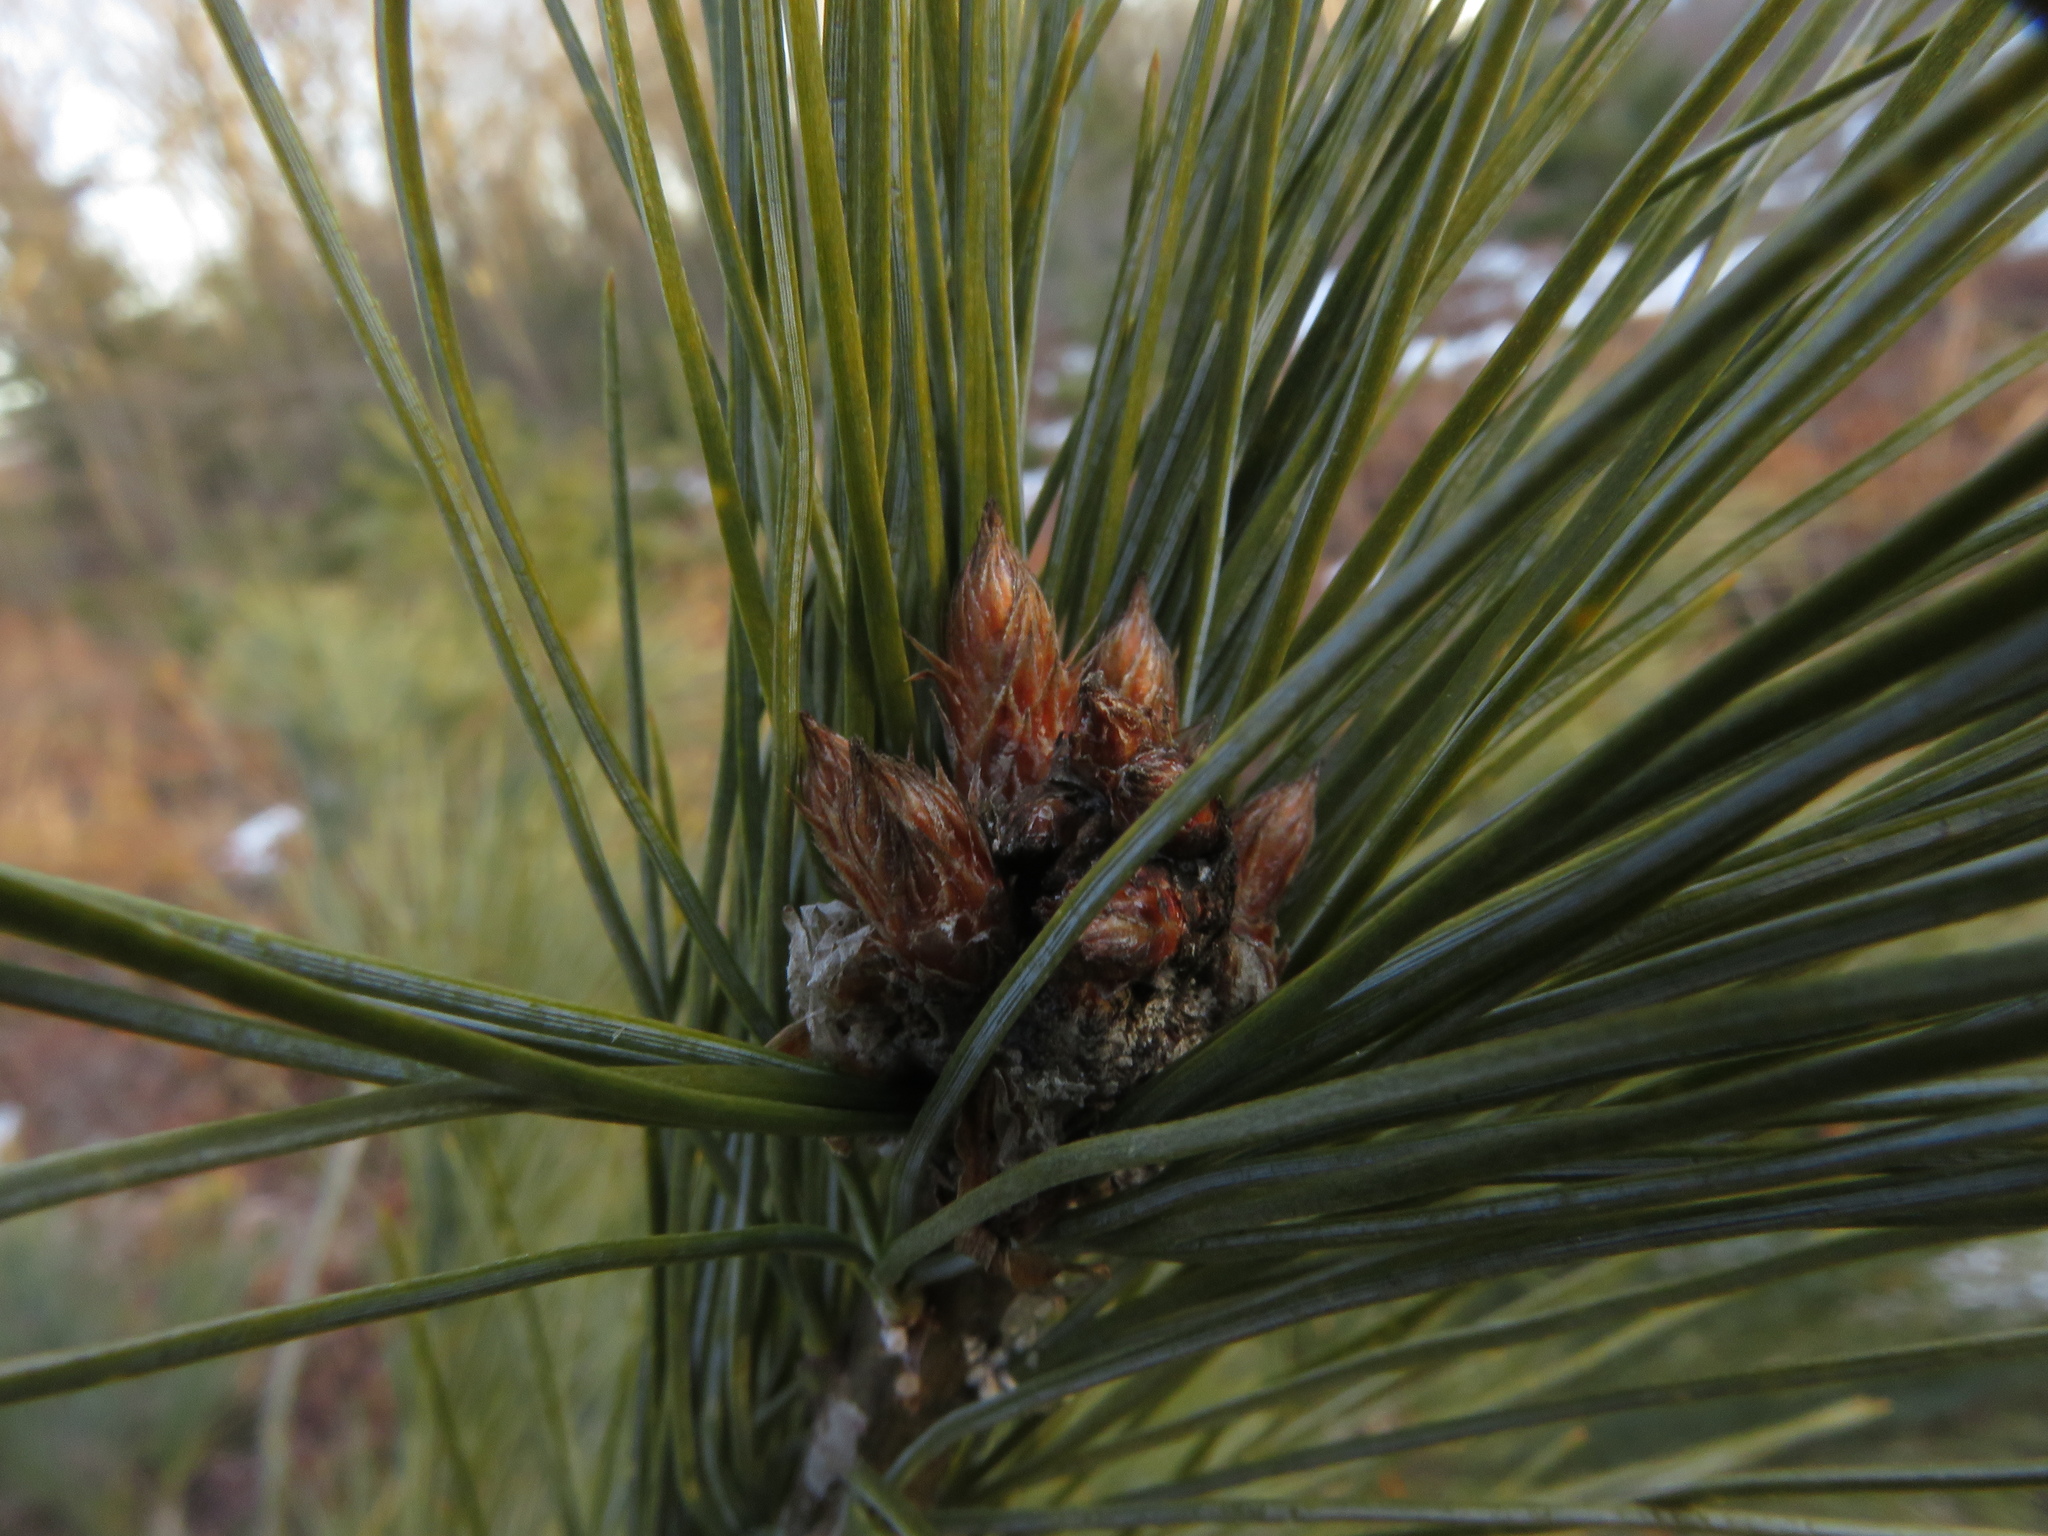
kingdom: Plantae
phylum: Tracheophyta
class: Pinopsida
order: Pinales
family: Pinaceae
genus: Pinus
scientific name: Pinus strobus
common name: Weymouth pine
